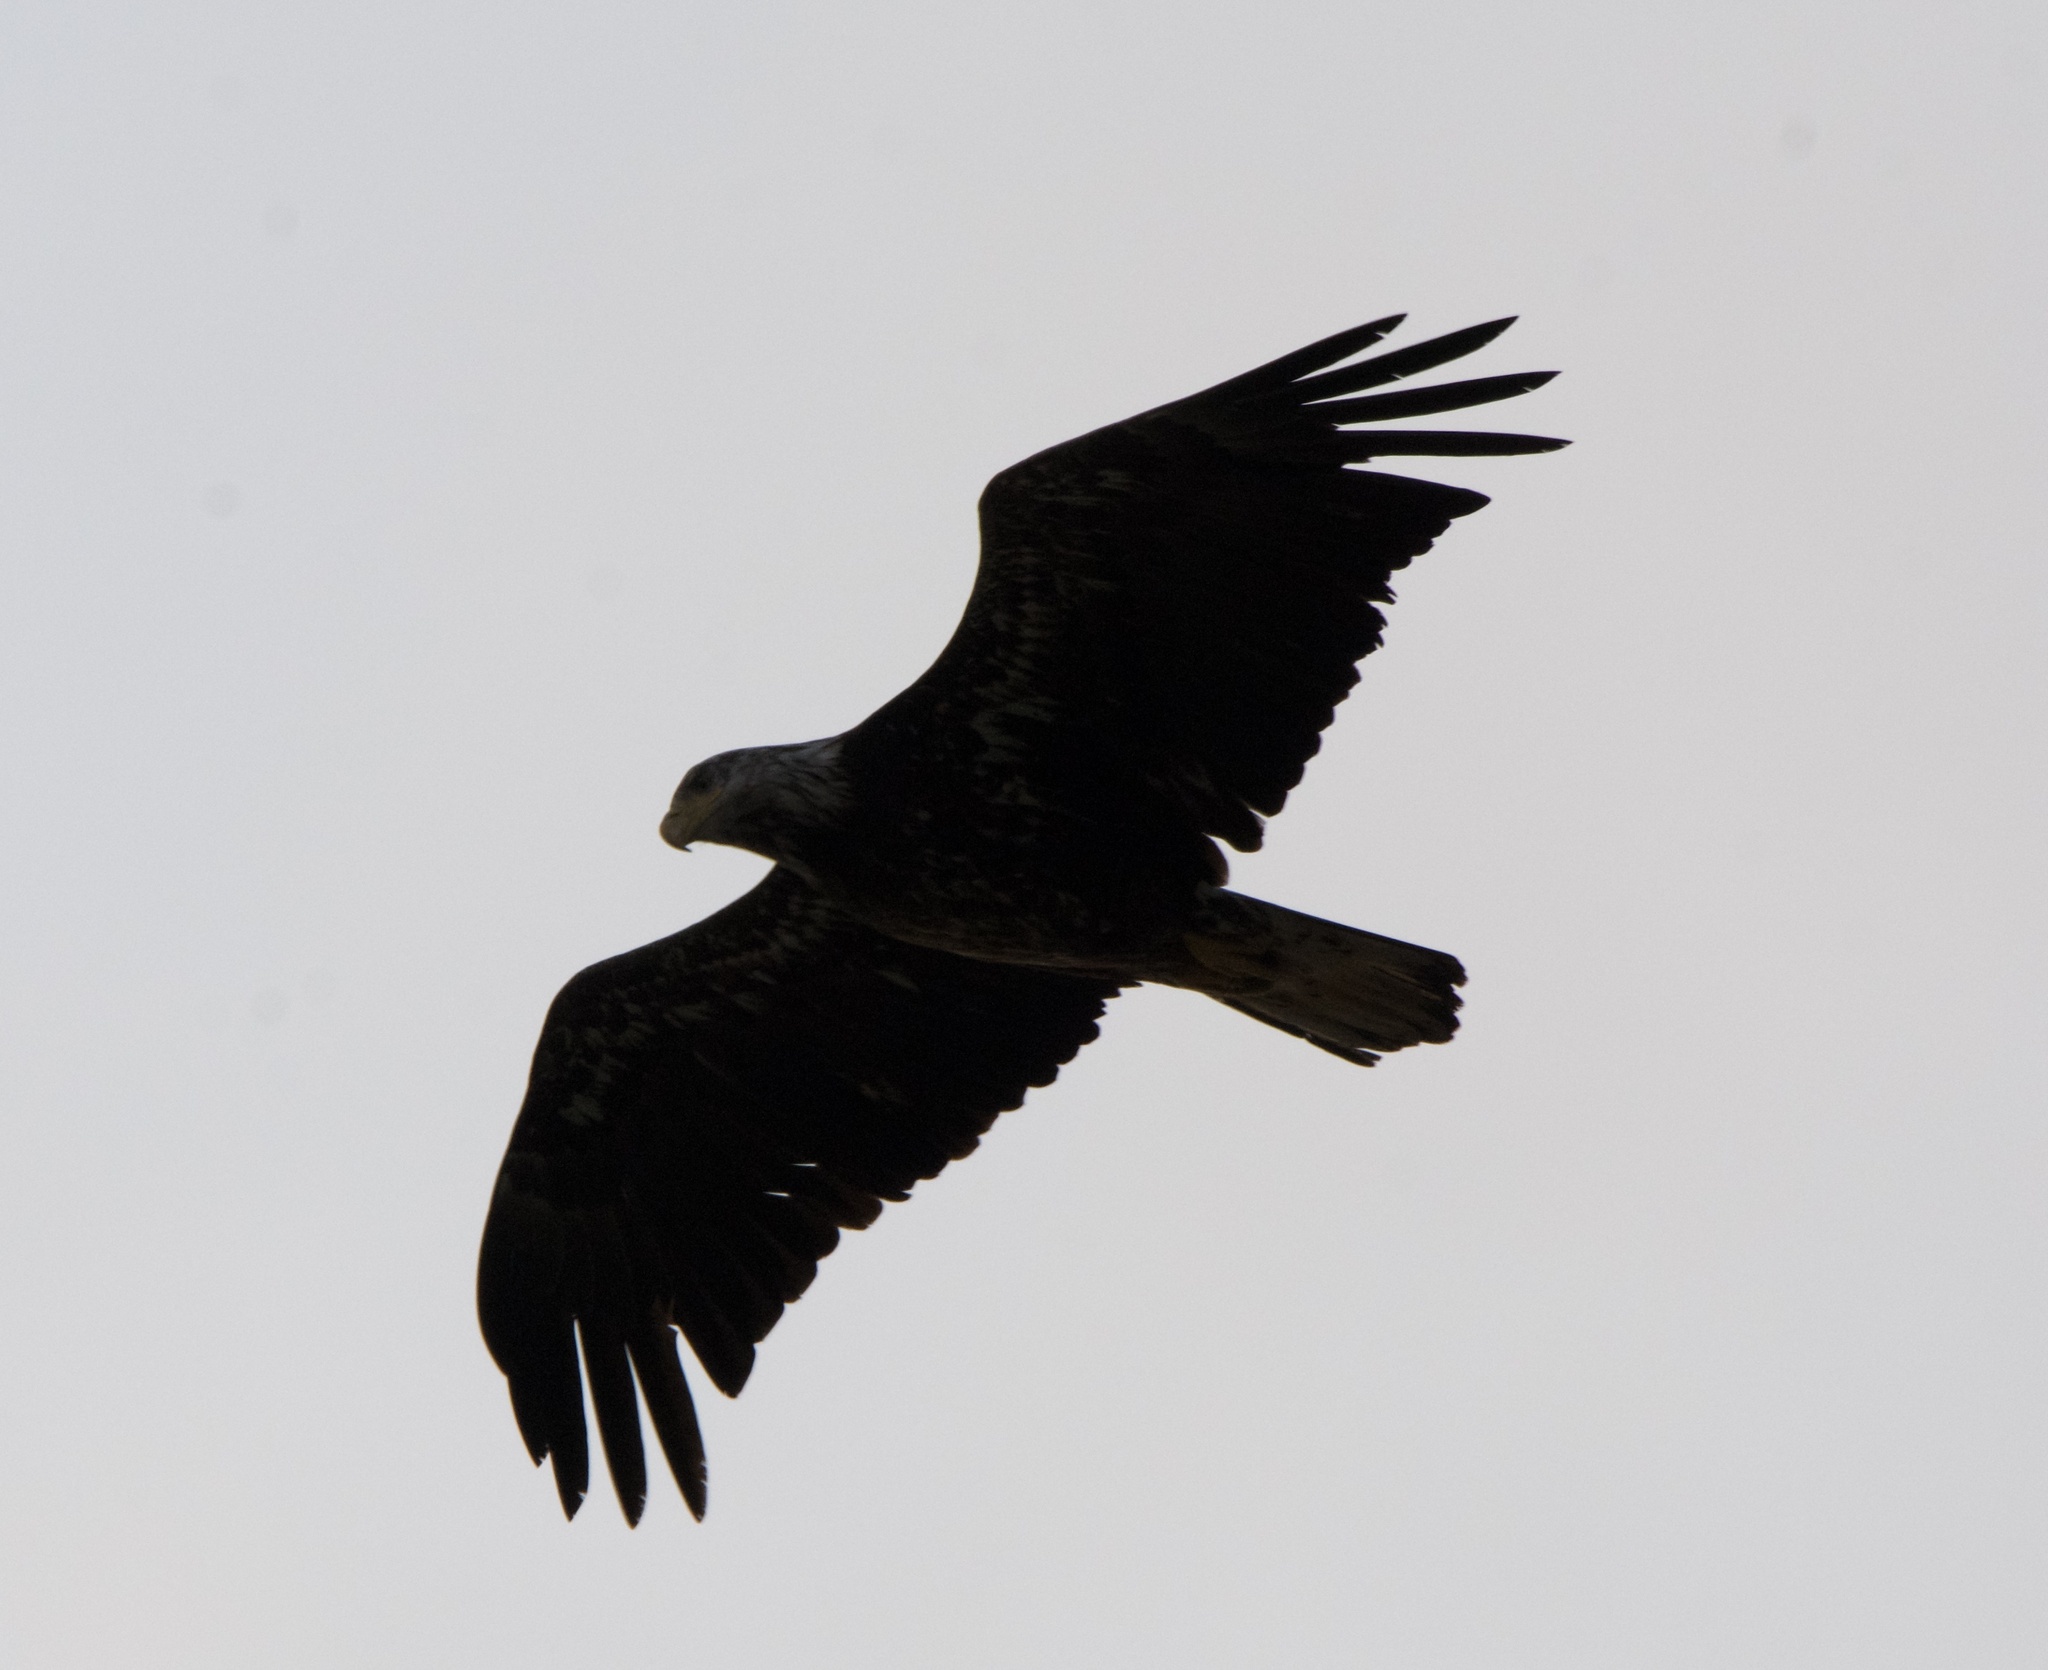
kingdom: Animalia
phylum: Chordata
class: Aves
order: Accipitriformes
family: Accipitridae
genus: Haliaeetus
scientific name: Haliaeetus leucocephalus
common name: Bald eagle
